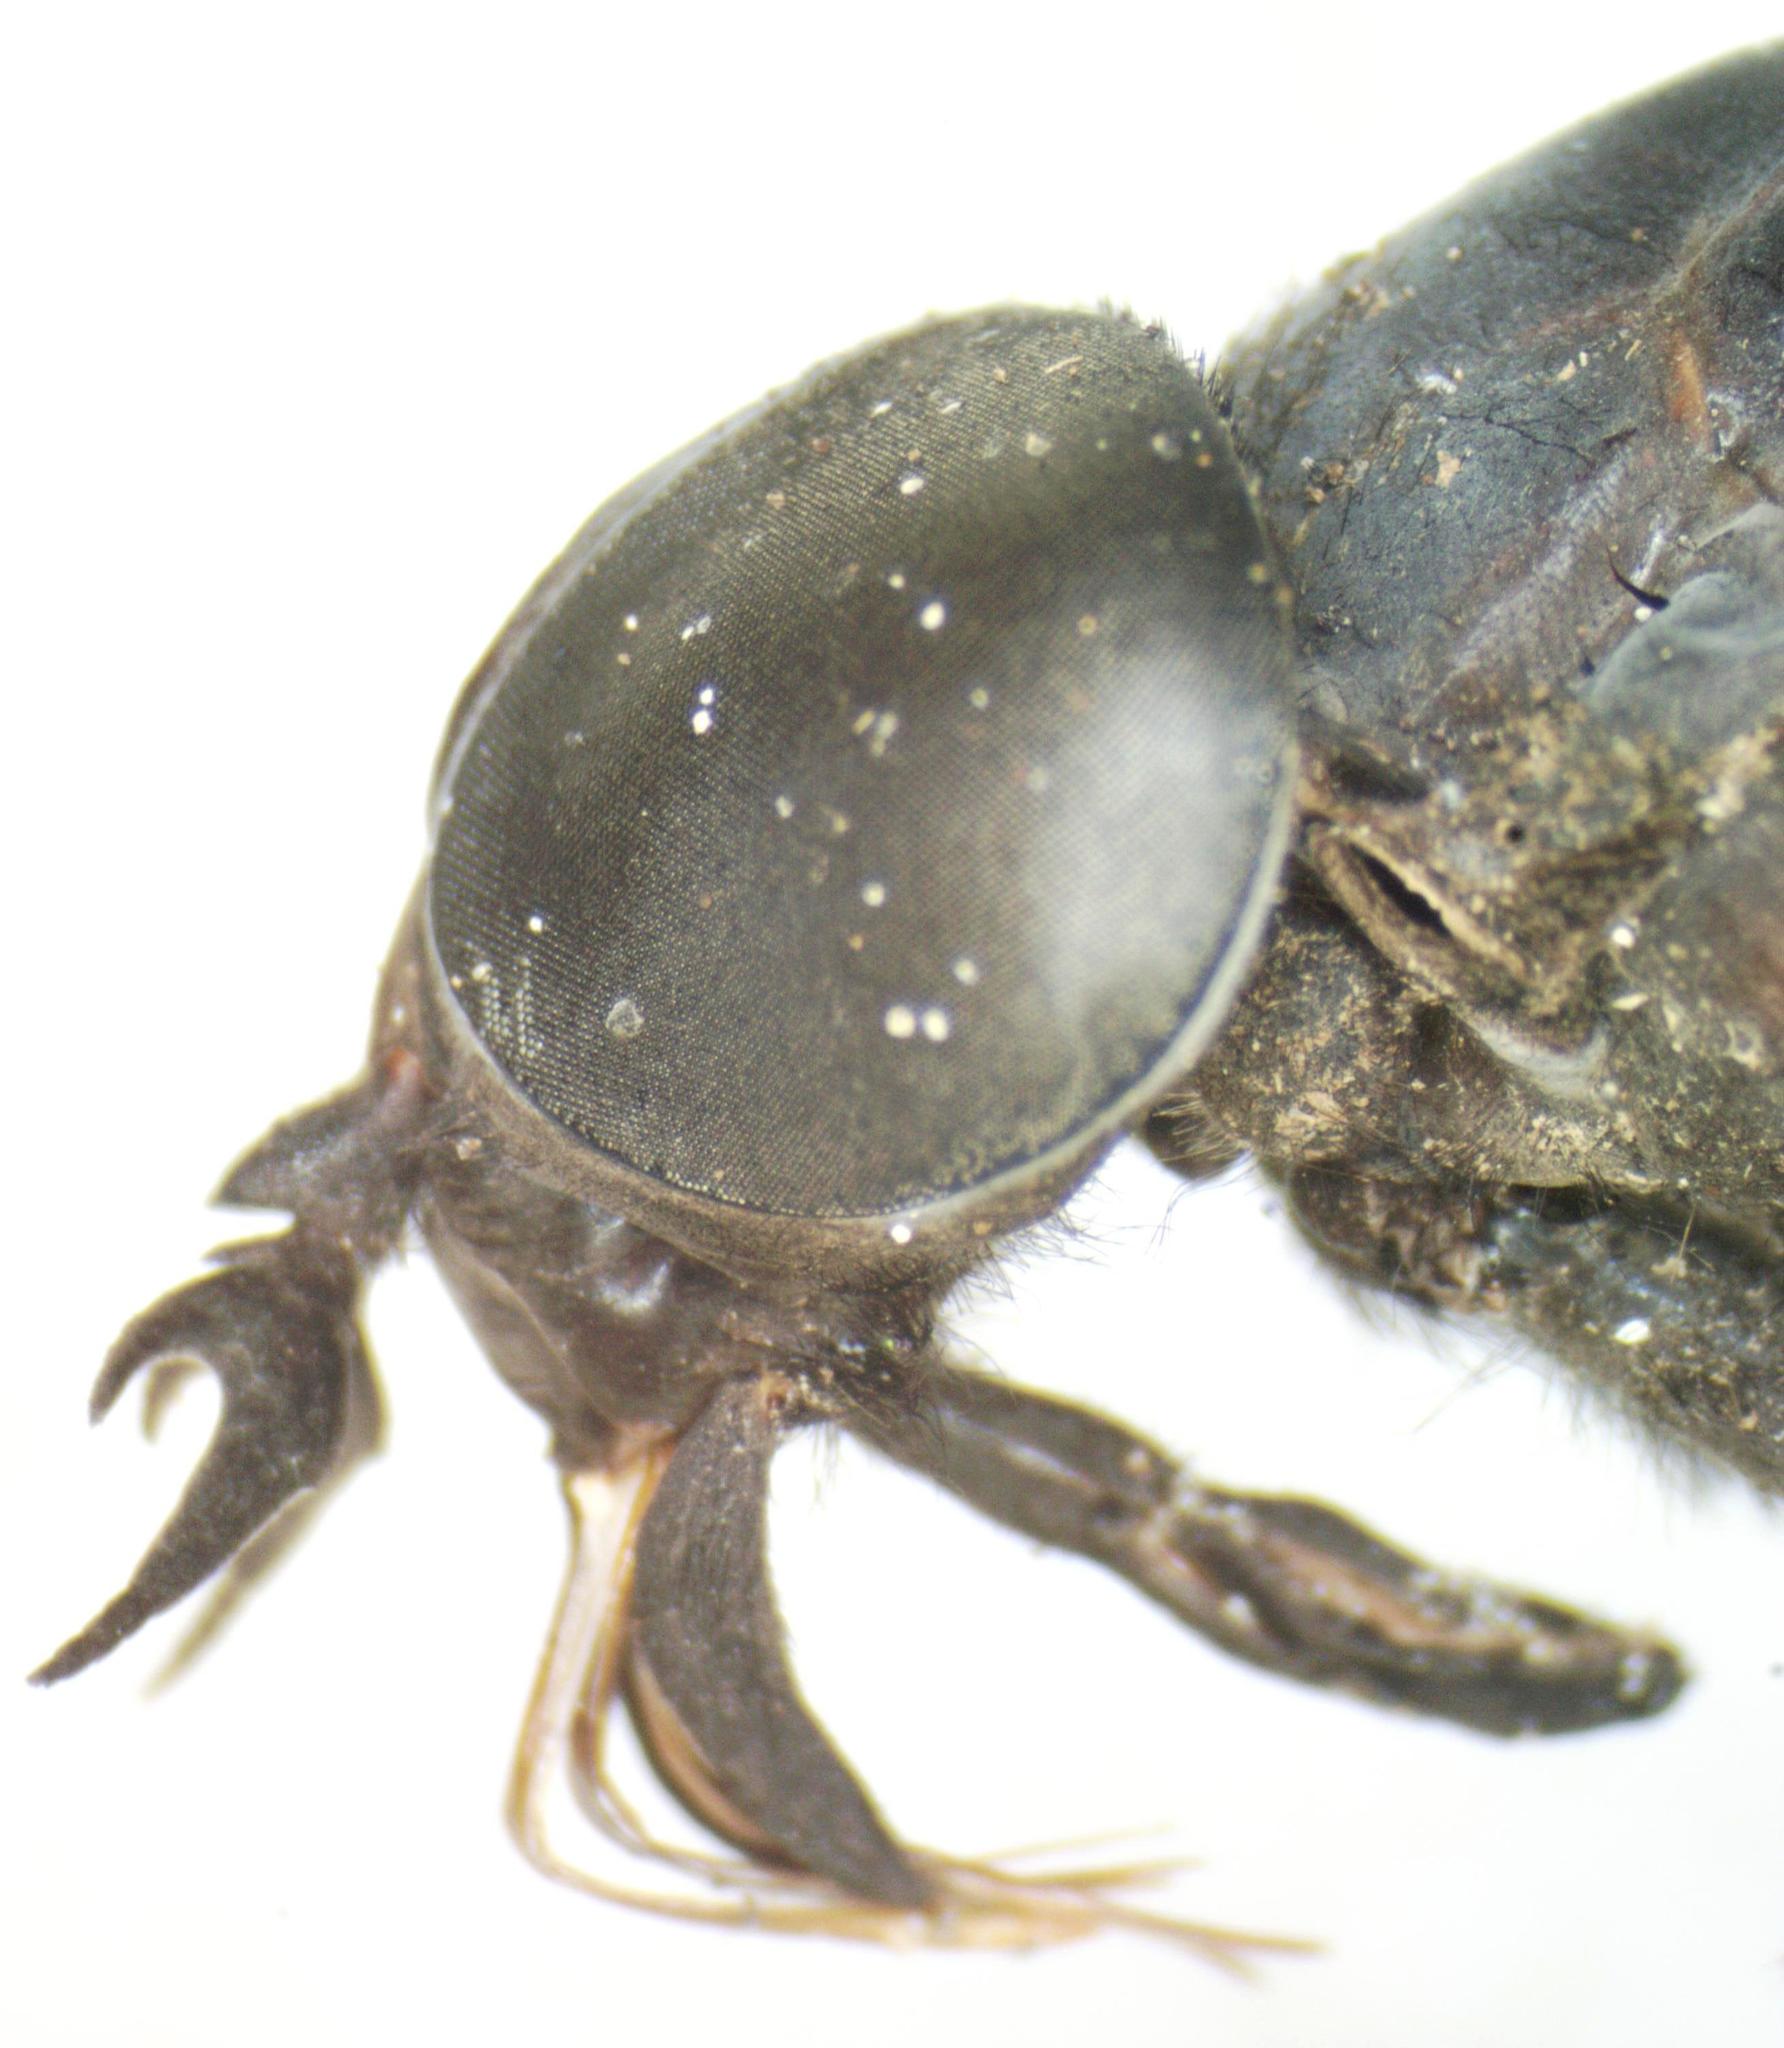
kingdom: Animalia
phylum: Arthropoda
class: Insecta
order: Diptera
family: Tabanidae
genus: Tabanus
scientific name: Tabanus erebus
